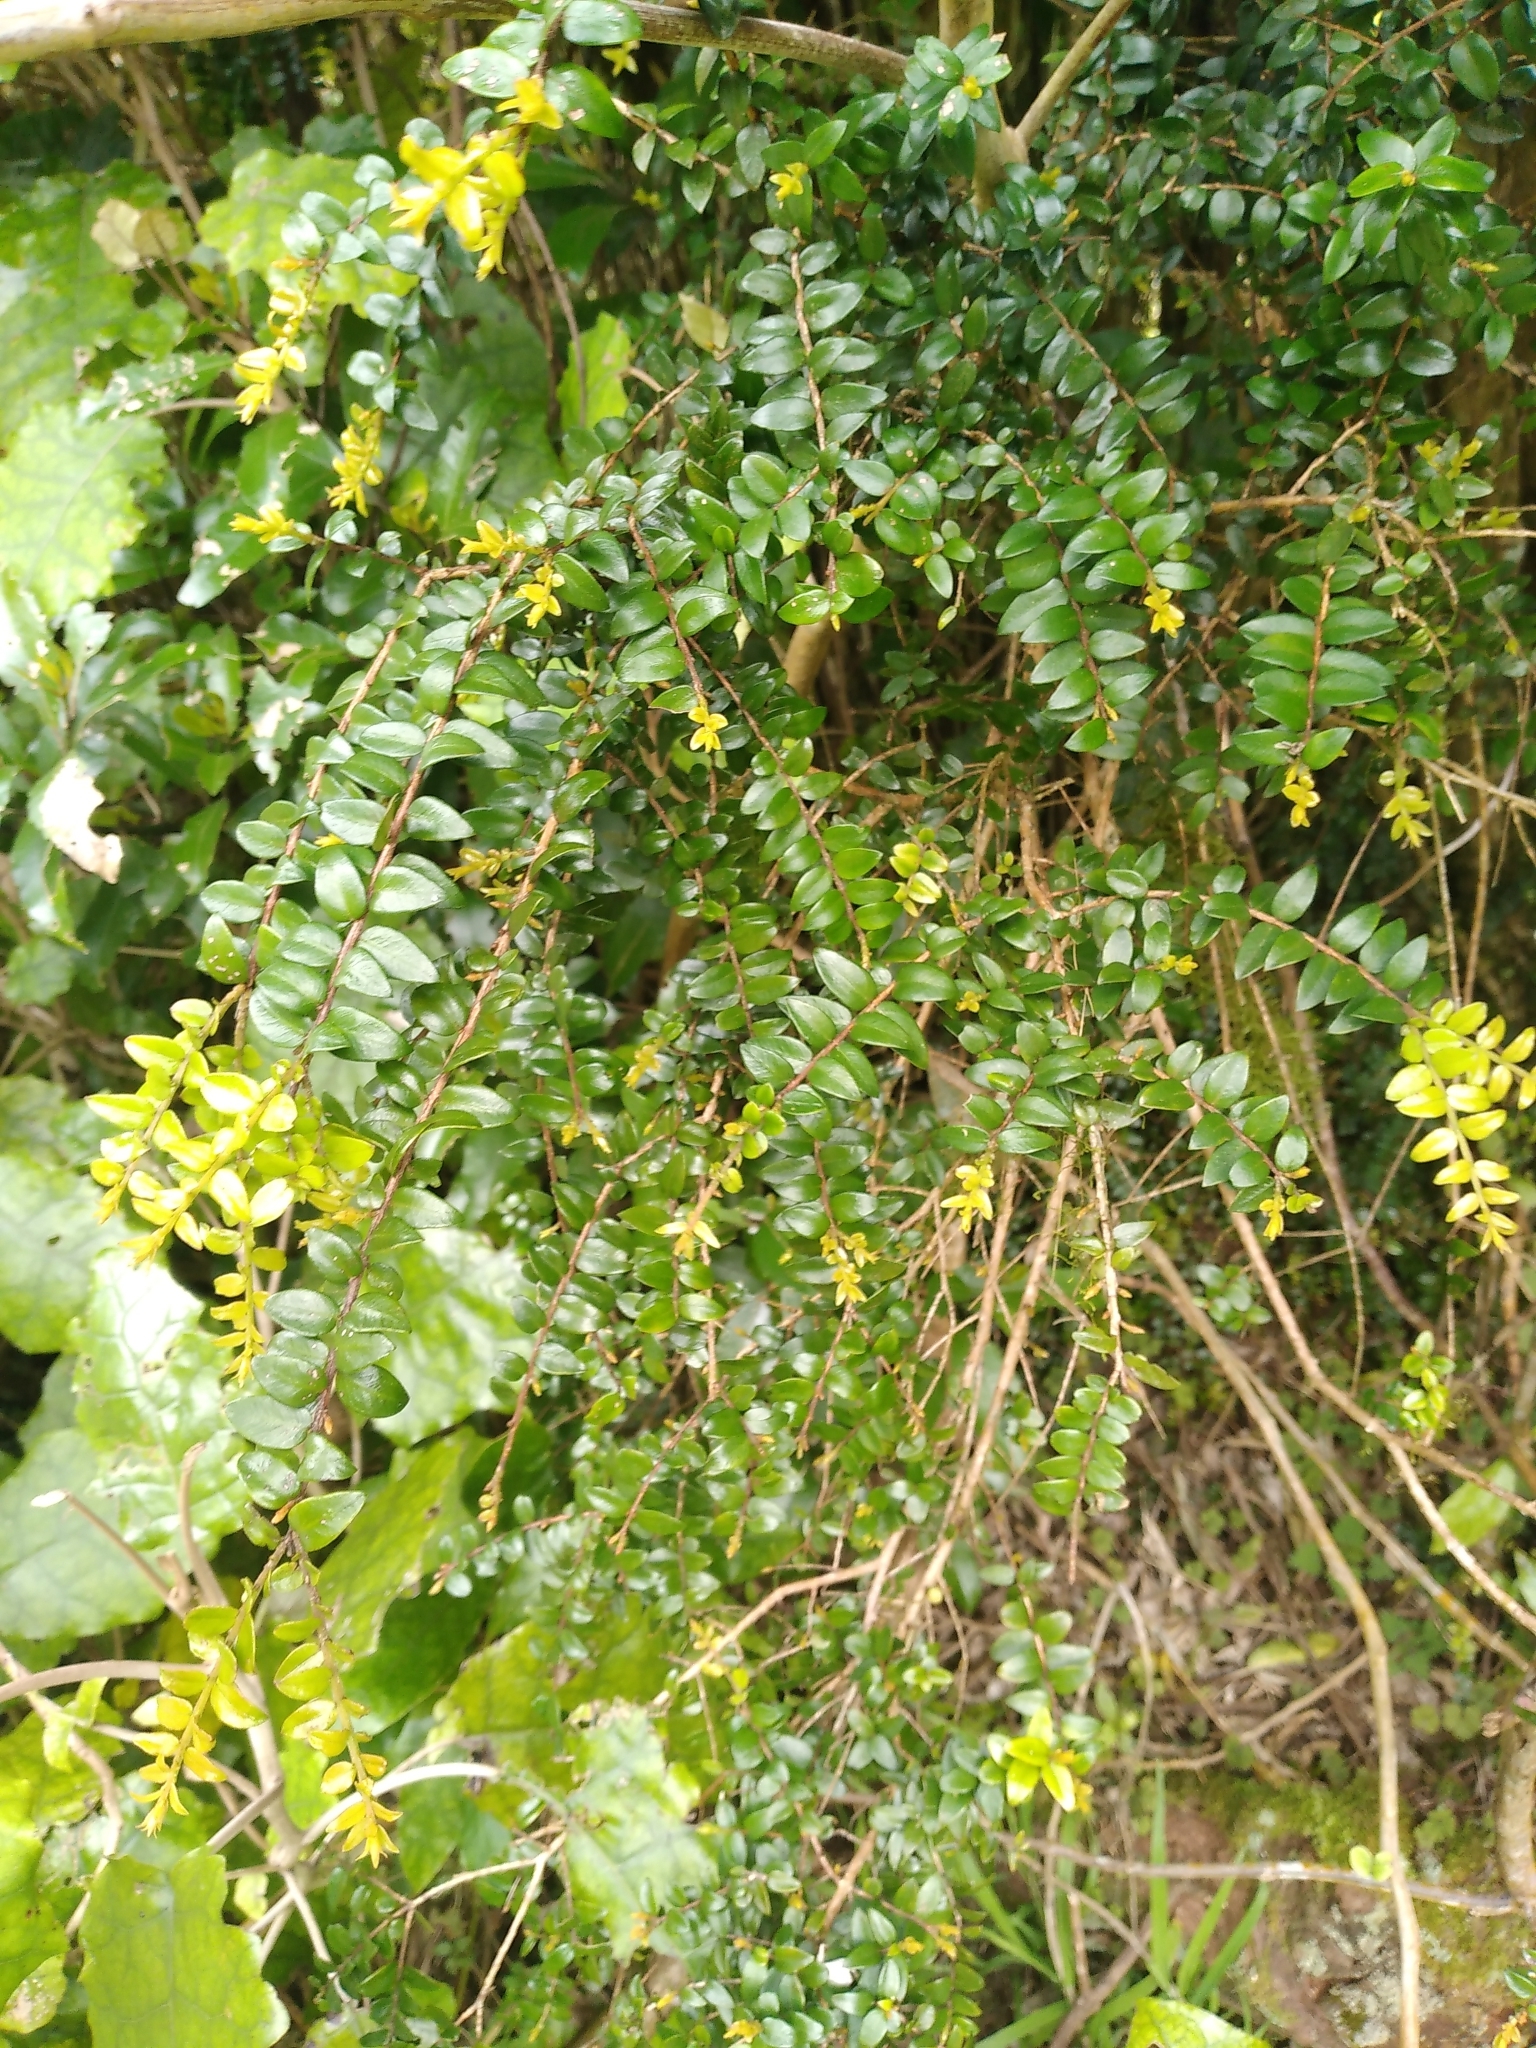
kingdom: Plantae
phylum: Tracheophyta
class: Magnoliopsida
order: Myrtales
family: Myrtaceae
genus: Metrosideros
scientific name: Metrosideros diffusa
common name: Small ratavine
